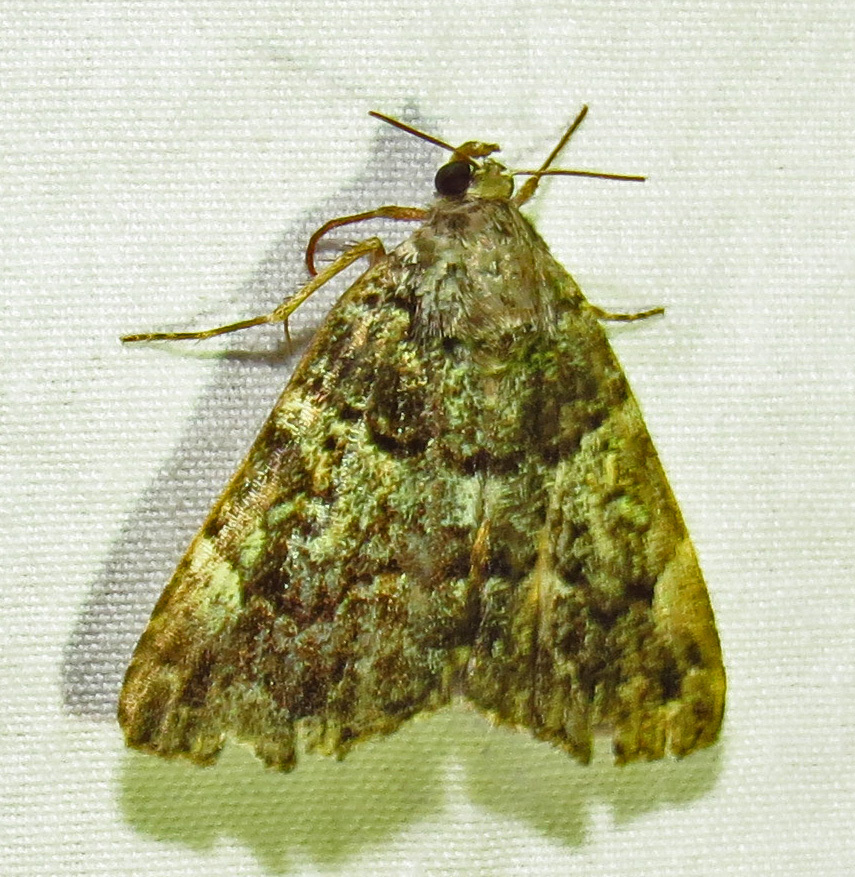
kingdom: Animalia
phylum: Arthropoda
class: Insecta
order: Lepidoptera
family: Erebidae
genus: Allotria
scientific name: Allotria elonympha
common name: False underwing
